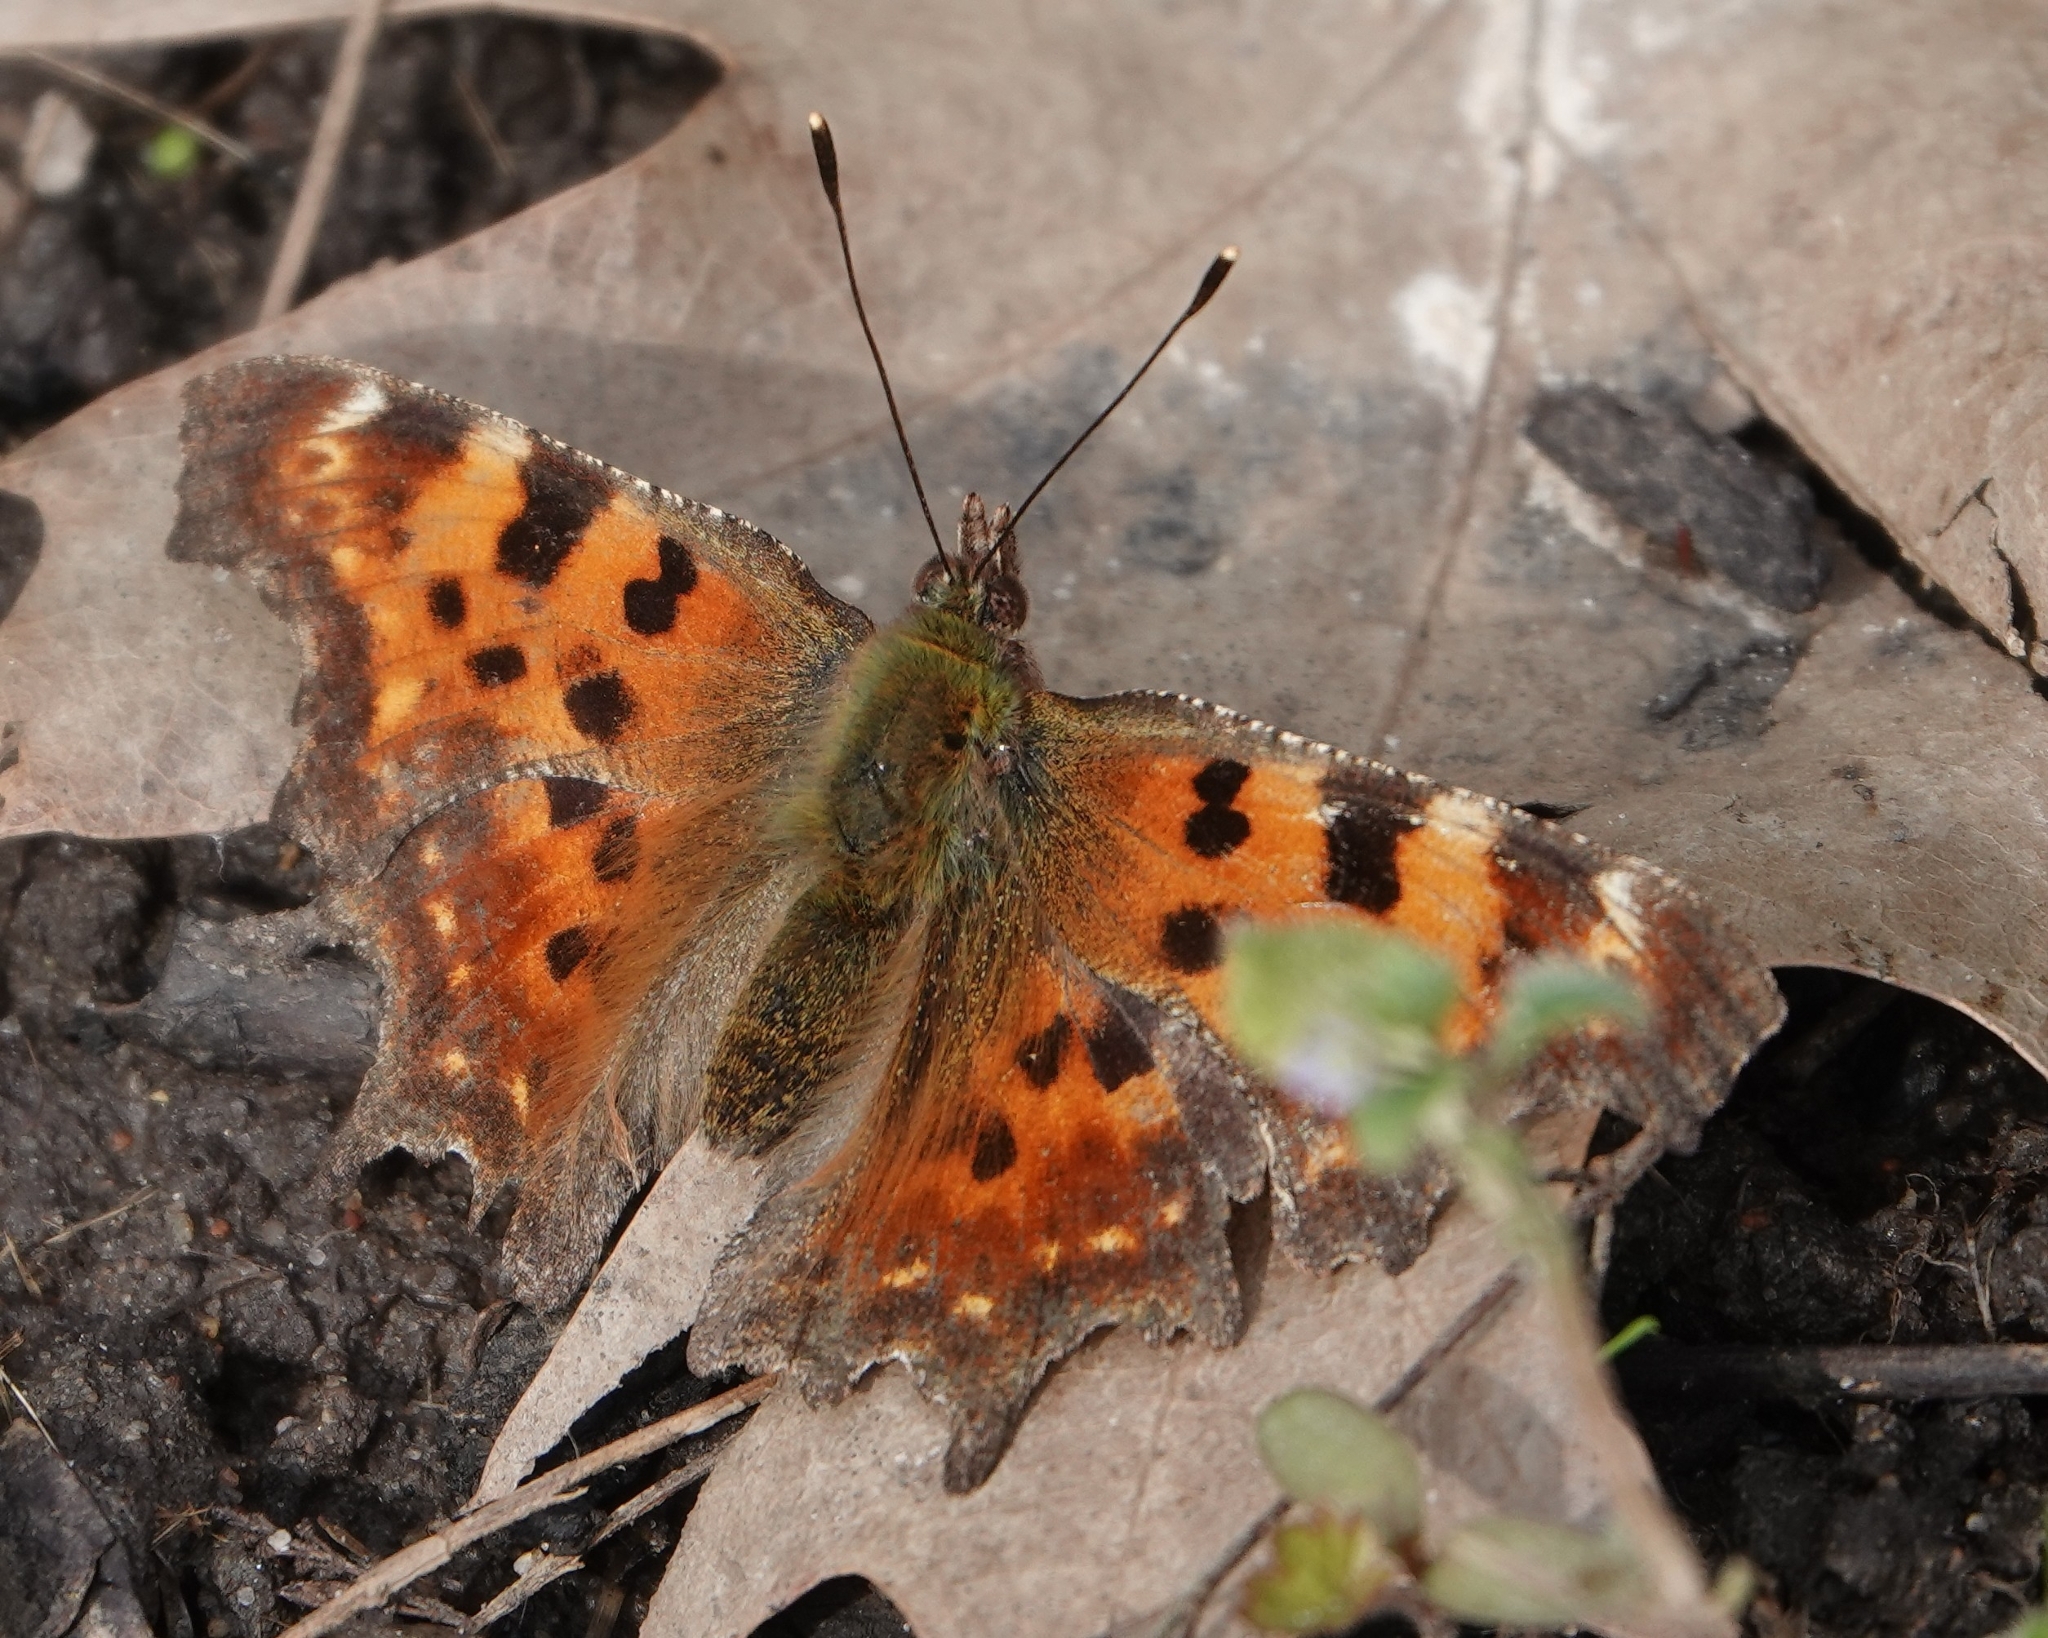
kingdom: Animalia
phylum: Arthropoda
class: Insecta
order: Lepidoptera
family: Nymphalidae
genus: Polygonia
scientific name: Polygonia c-album
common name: Comma
